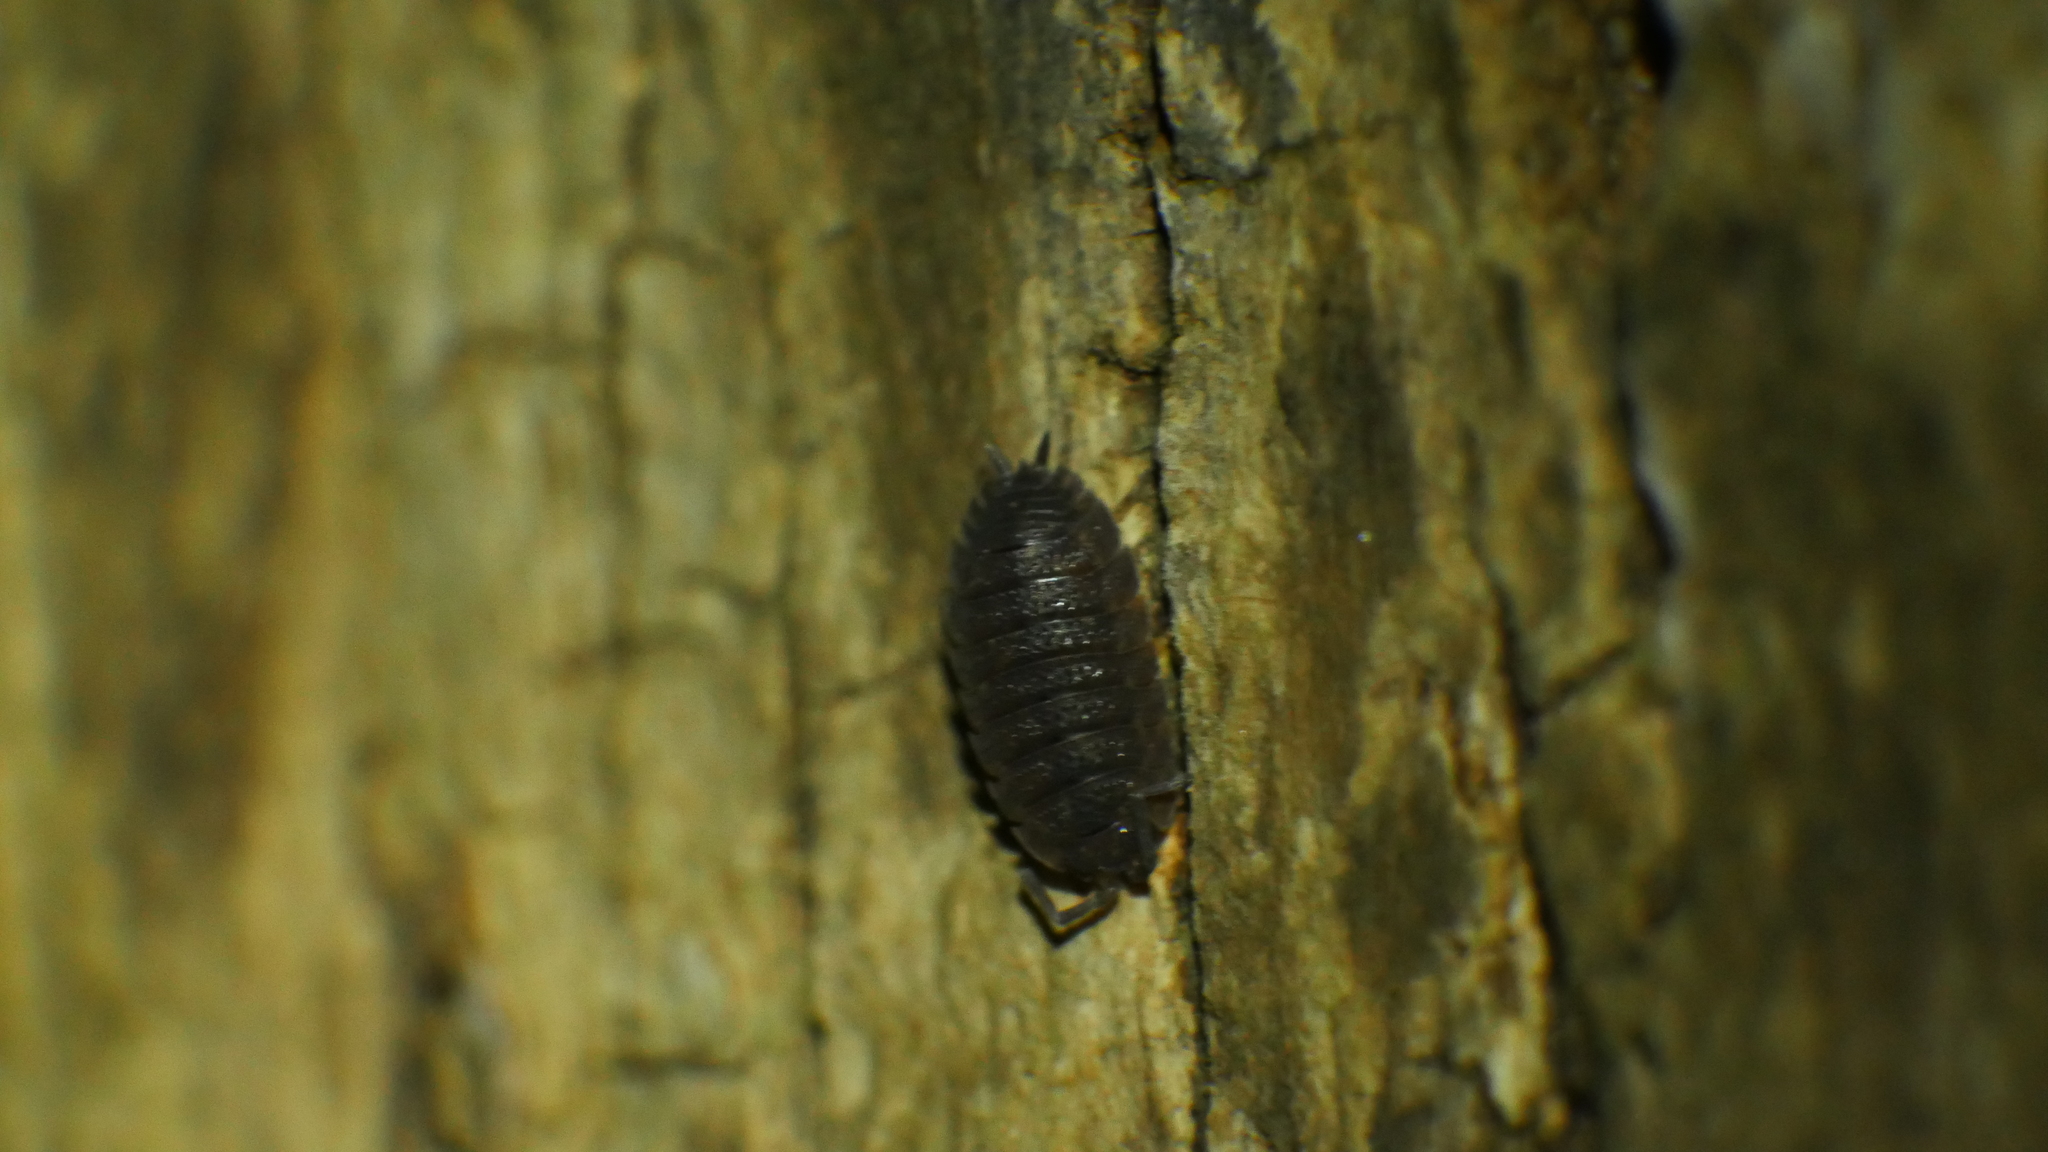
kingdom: Animalia
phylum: Arthropoda
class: Malacostraca
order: Isopoda
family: Porcellionidae
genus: Porcellio
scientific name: Porcellio scaber
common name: Common rough woodlouse
